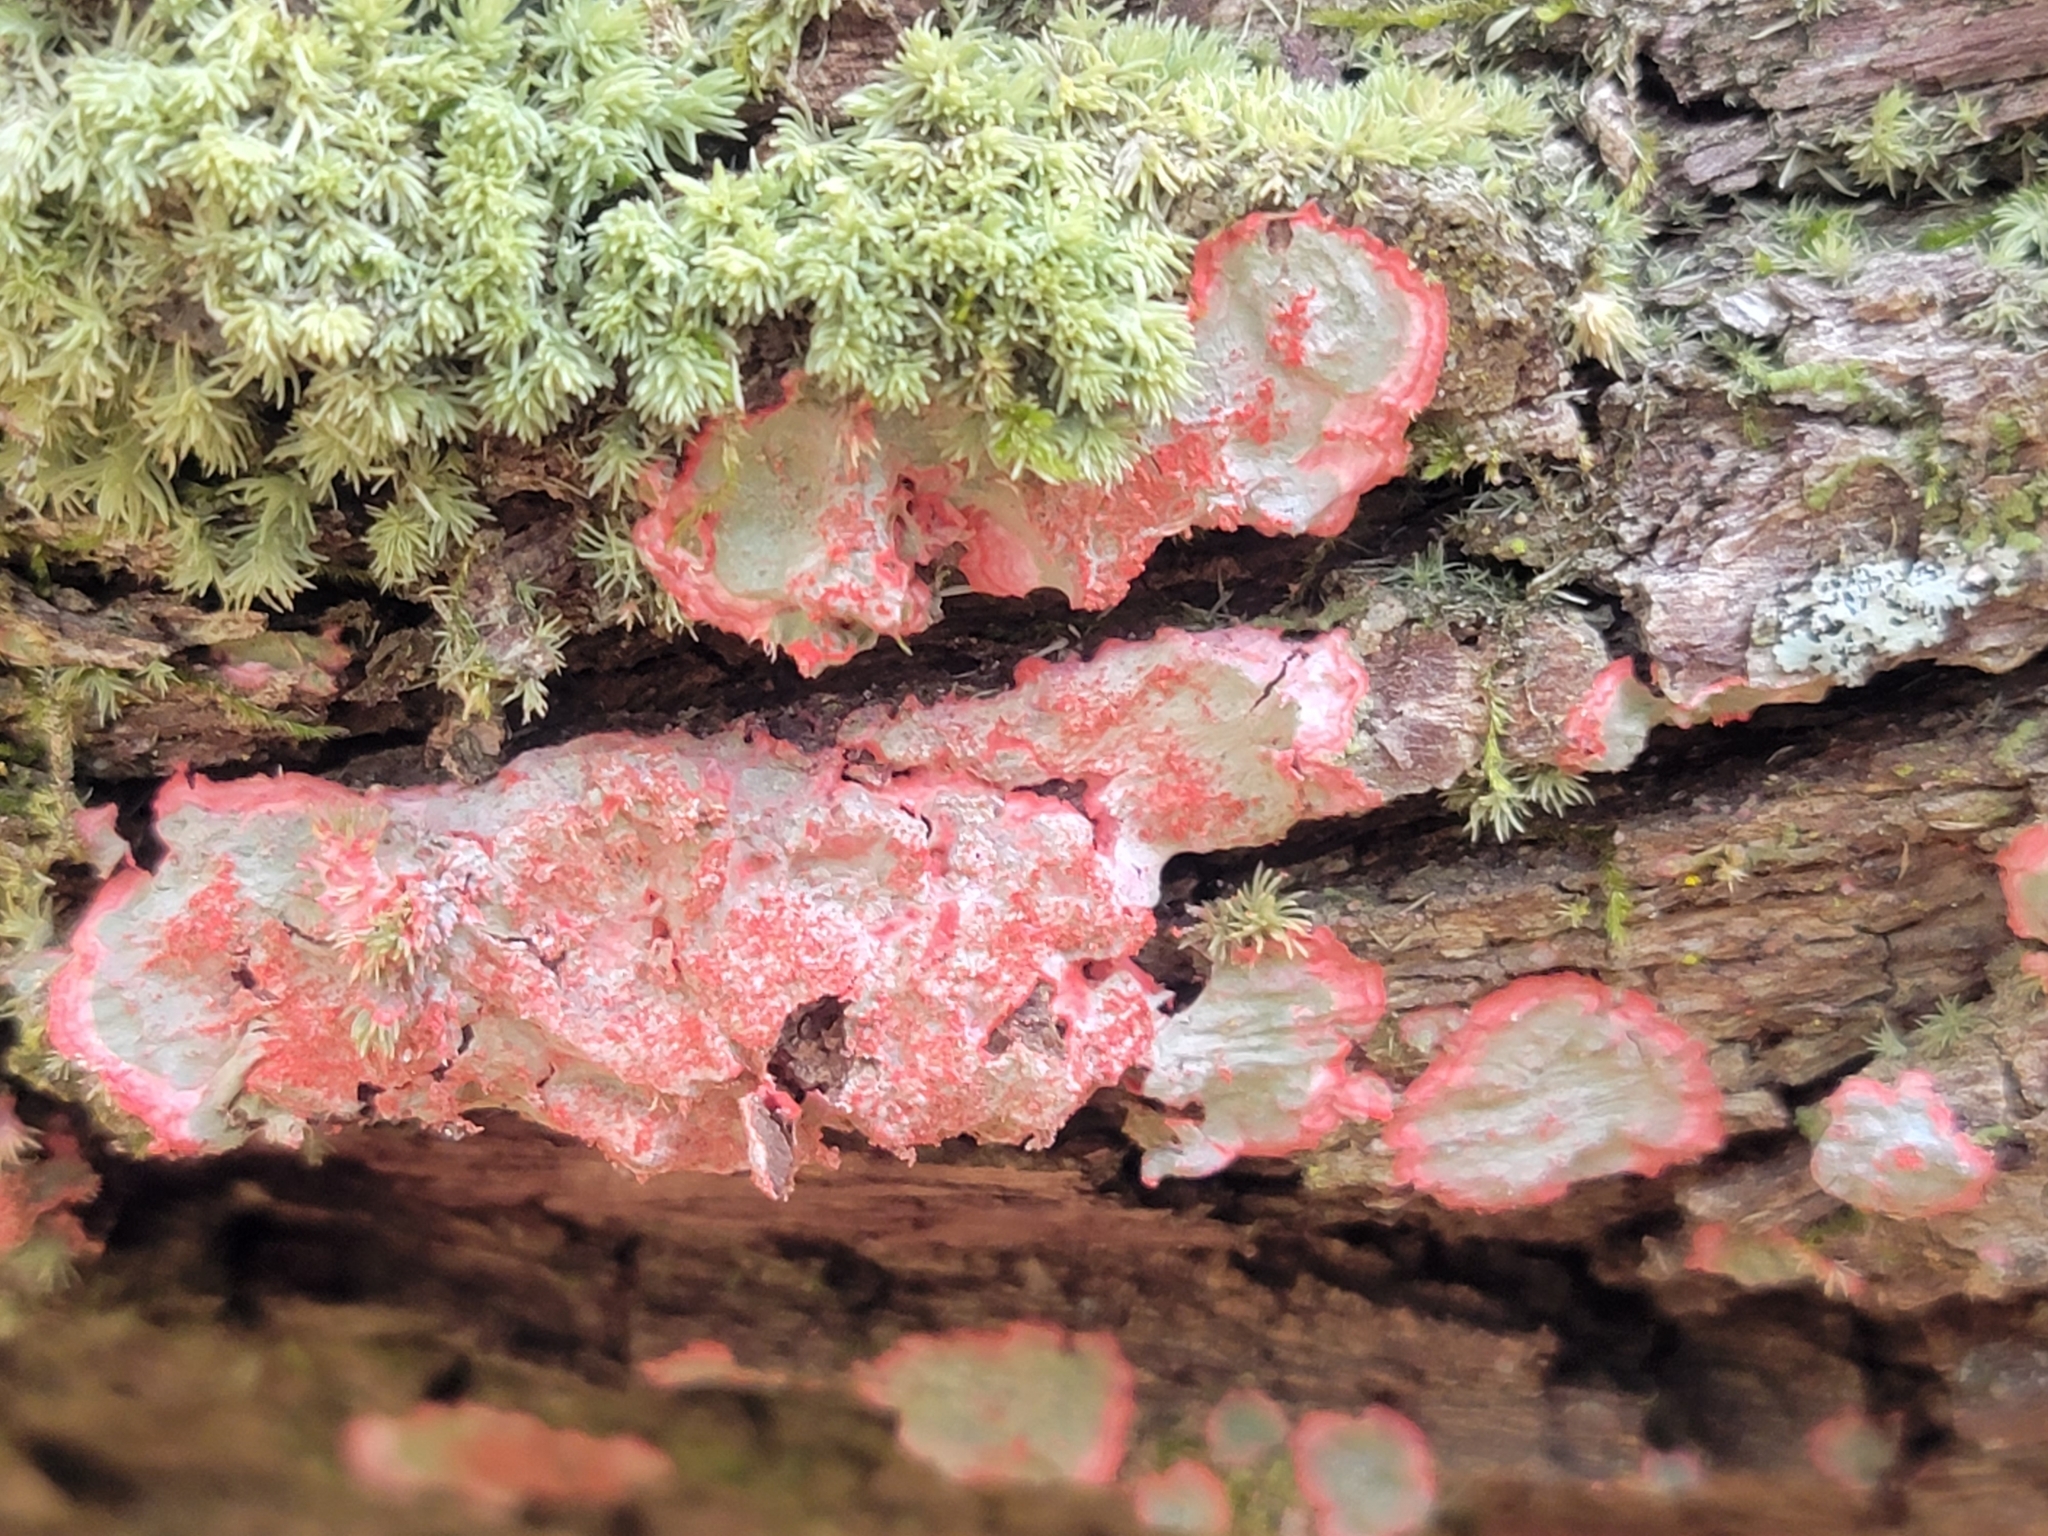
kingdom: Fungi
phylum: Ascomycota
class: Arthoniomycetes
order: Arthoniales
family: Arthoniaceae
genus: Herpothallon
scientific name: Herpothallon rubrocinctum
